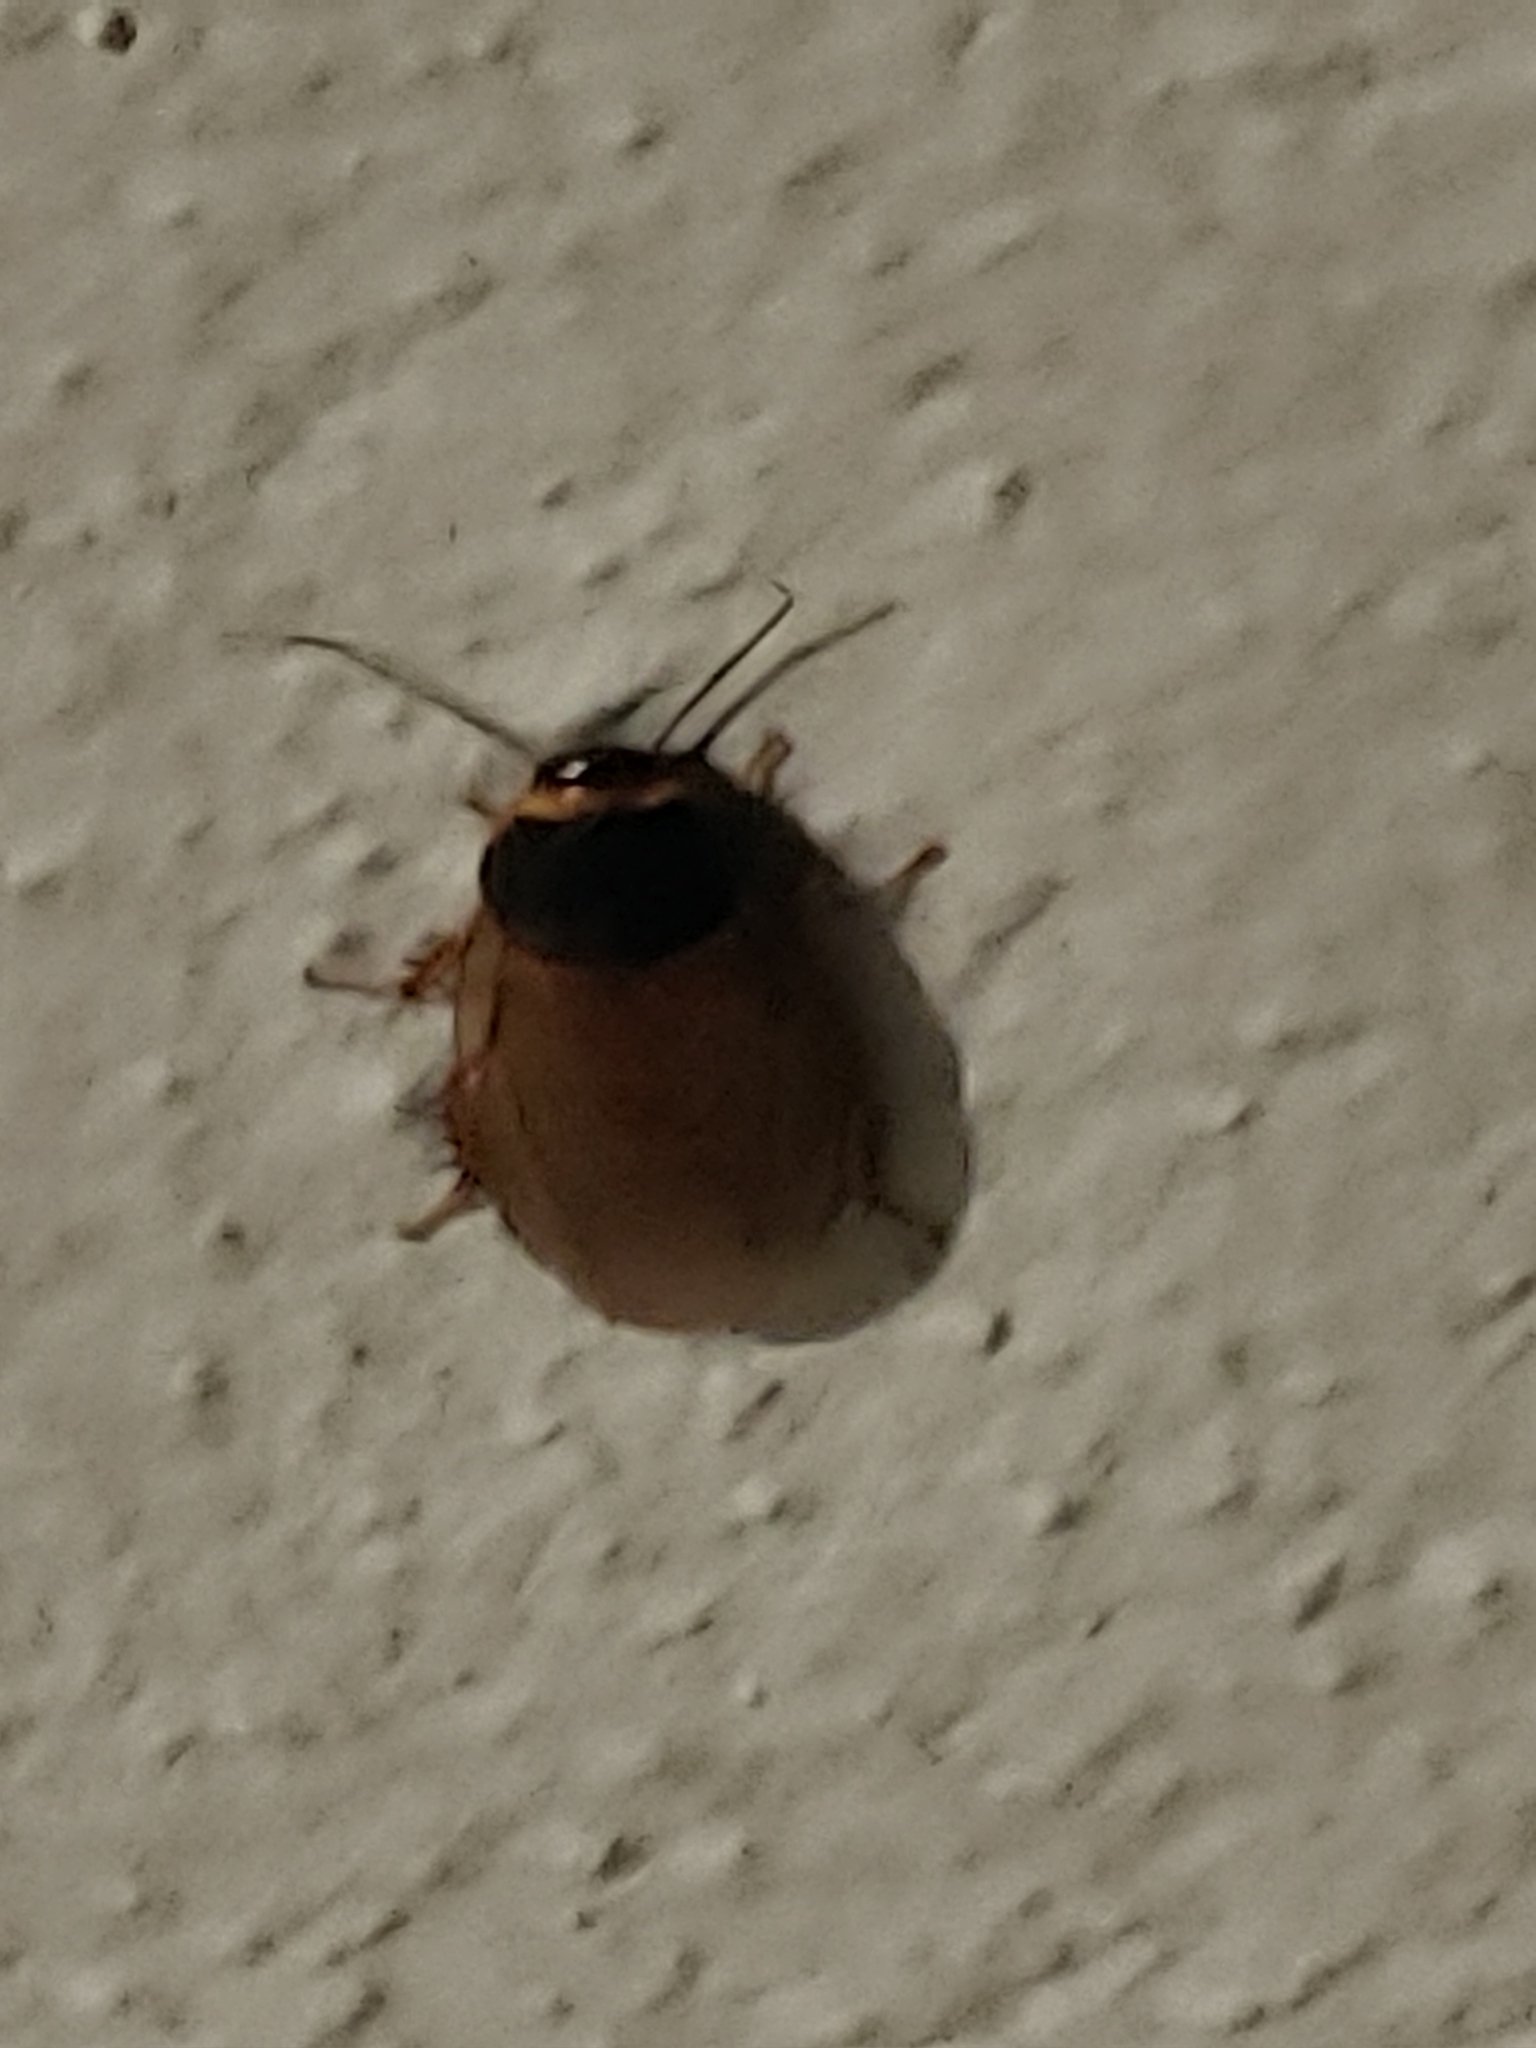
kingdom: Animalia
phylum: Arthropoda
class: Insecta
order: Blattodea
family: Blaberidae
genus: Pycnoscelus
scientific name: Pycnoscelus surinamensis
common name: Surinam cockroach
